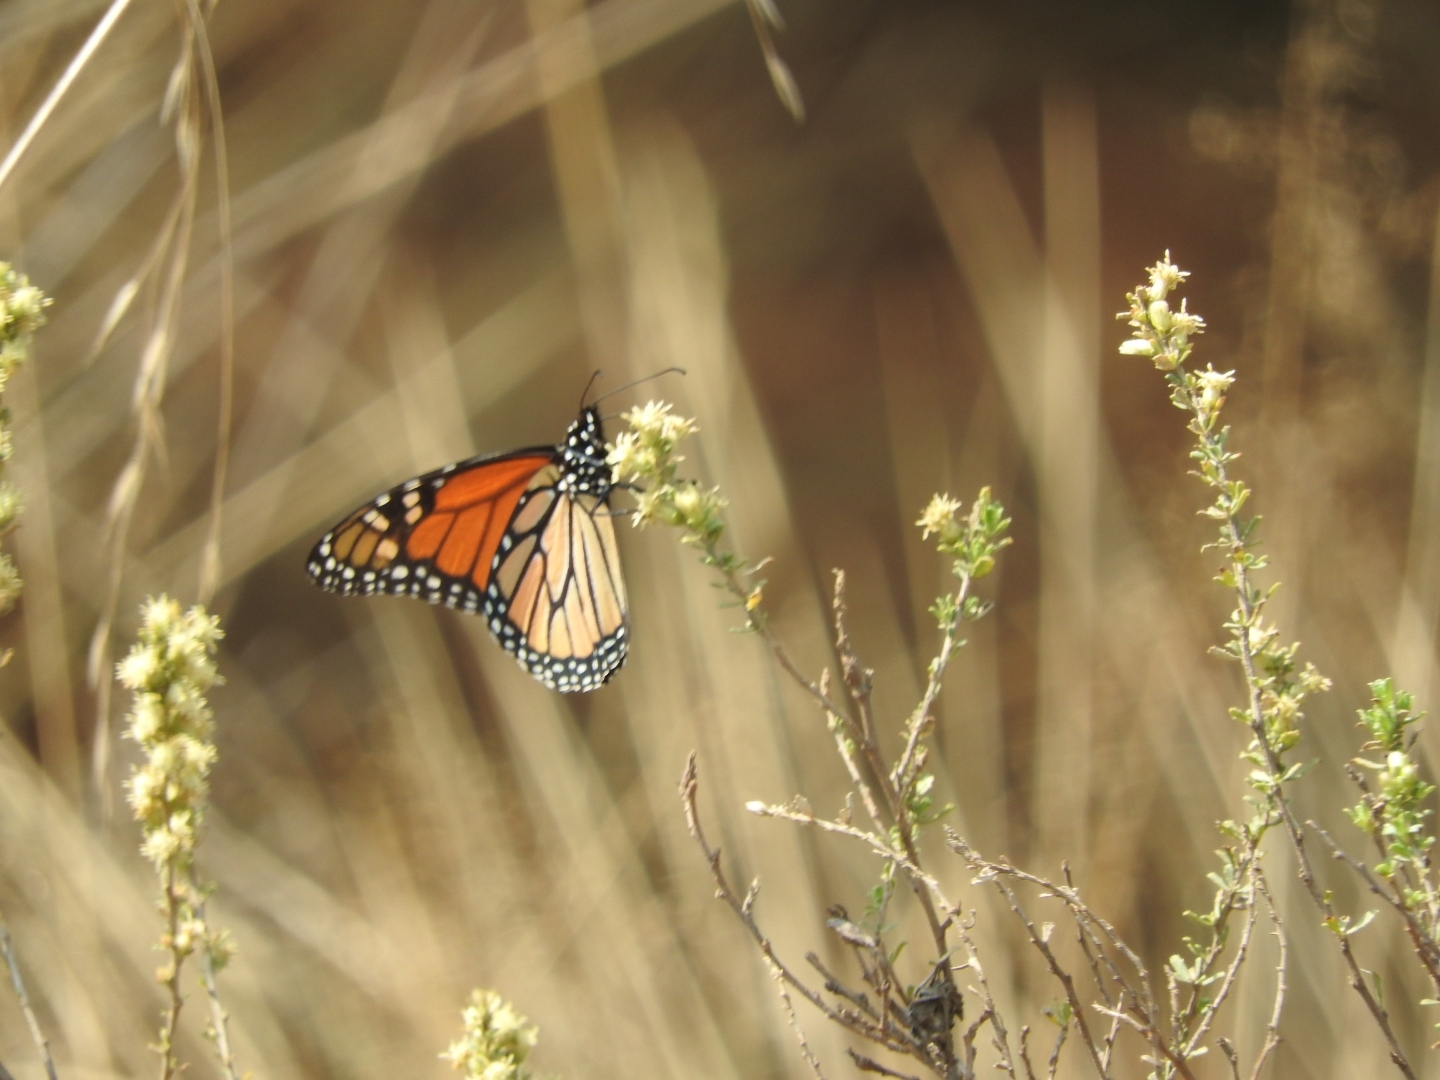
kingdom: Animalia
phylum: Arthropoda
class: Insecta
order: Lepidoptera
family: Nymphalidae
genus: Danaus
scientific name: Danaus plexippus
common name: Monarch
